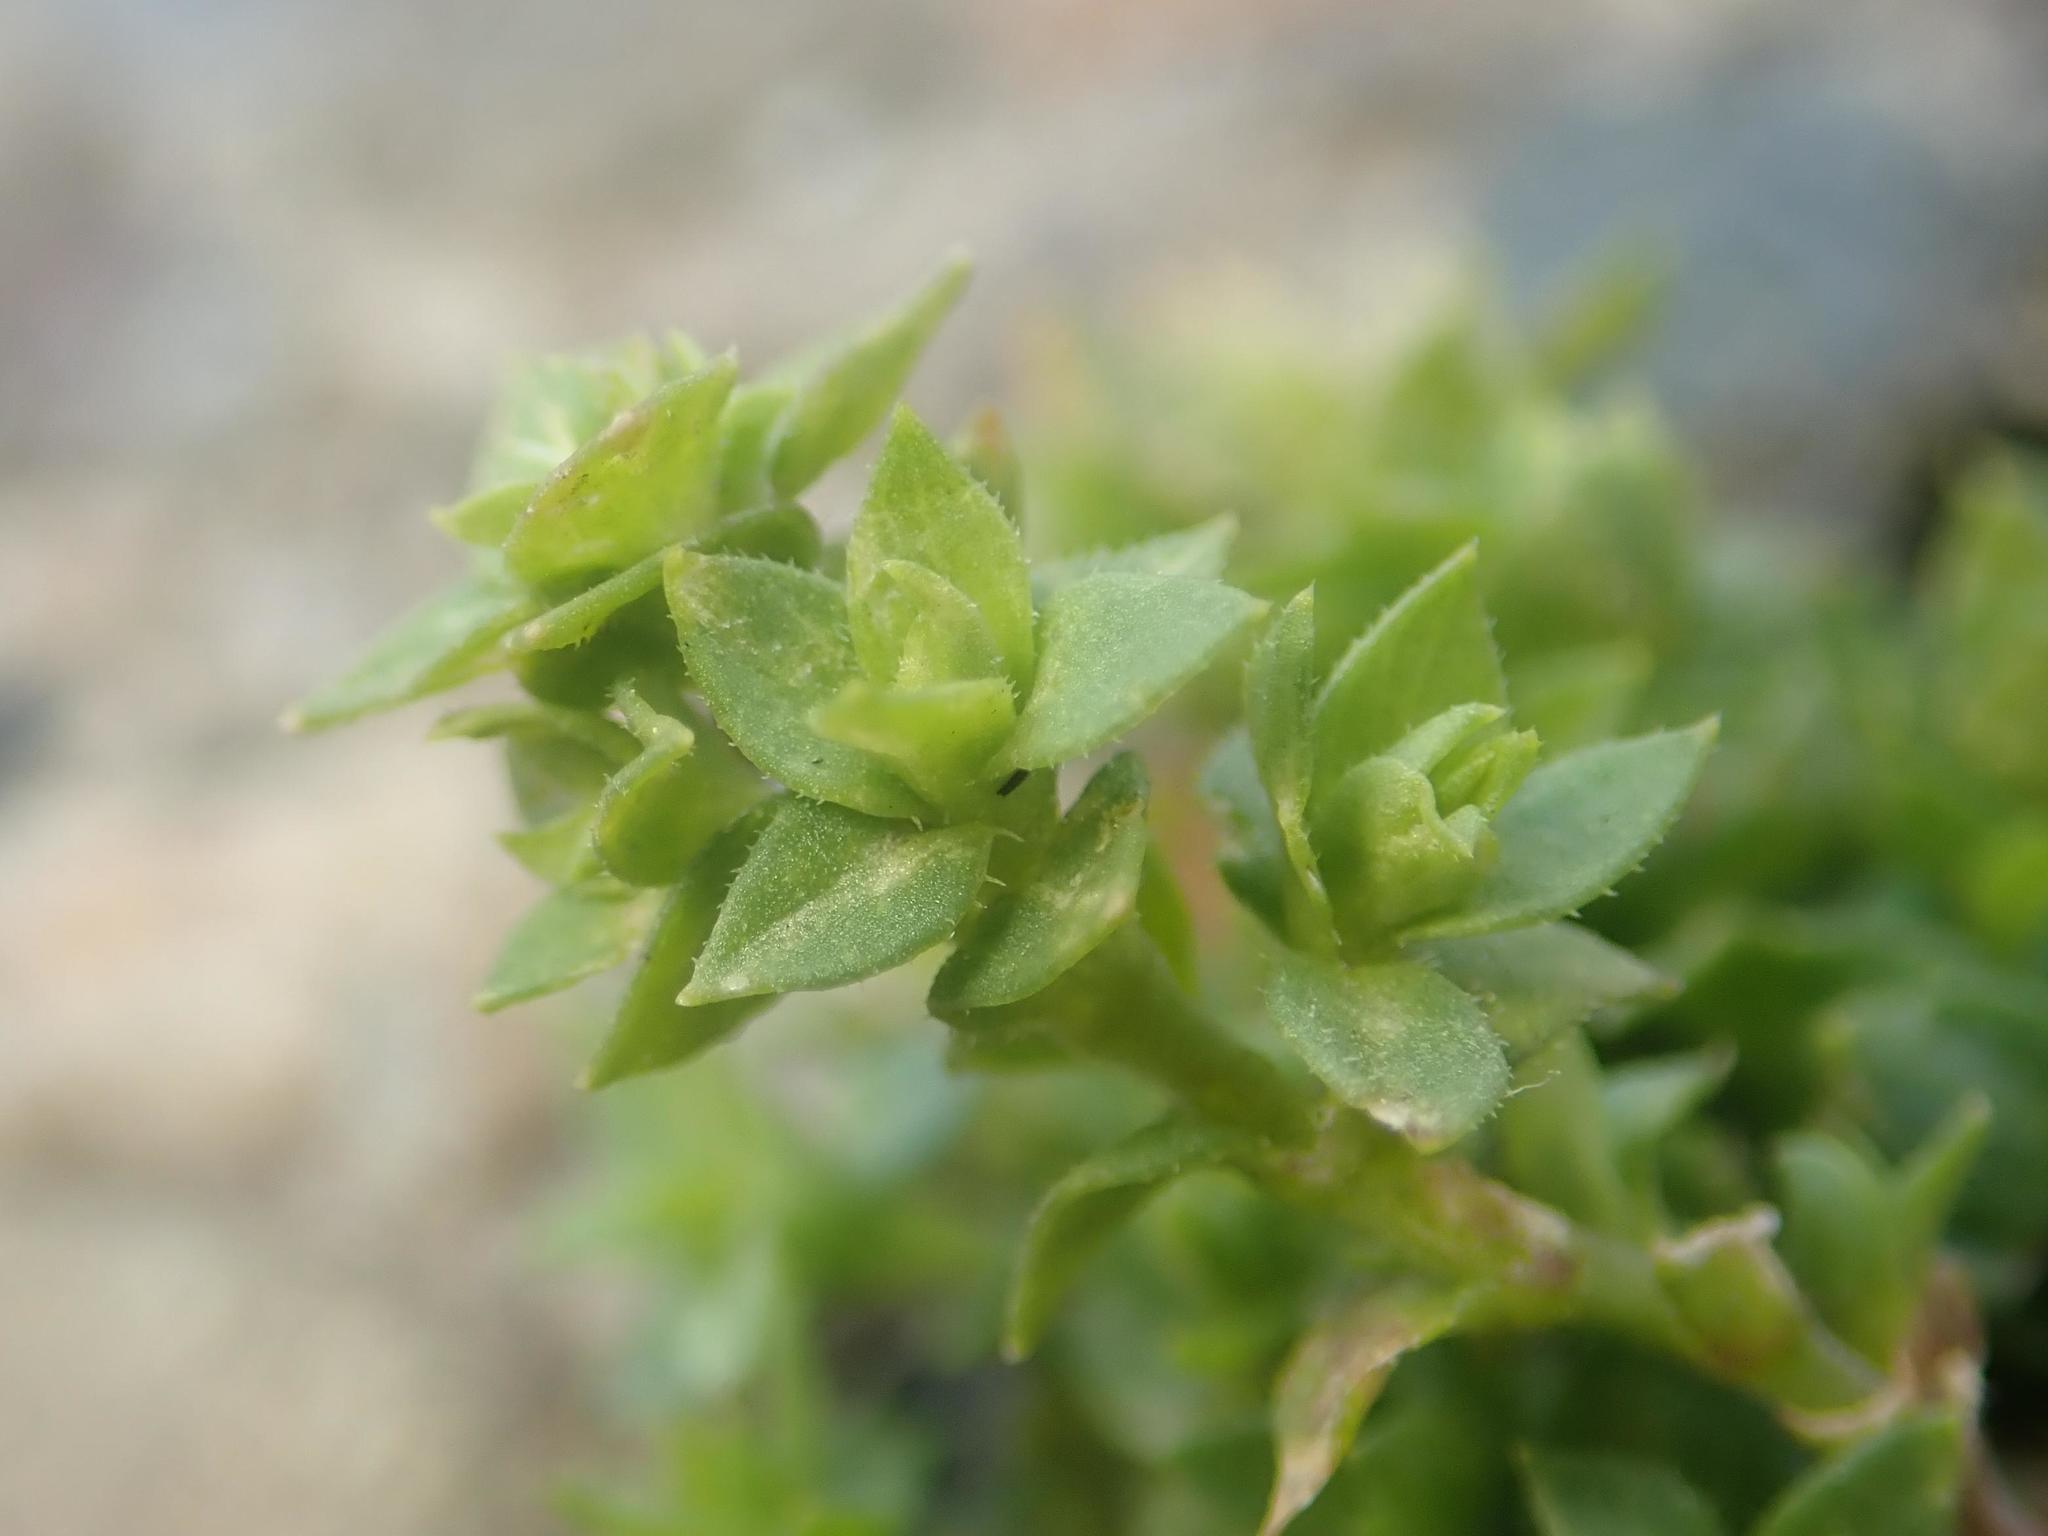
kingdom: Plantae
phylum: Tracheophyta
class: Magnoliopsida
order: Caryophyllales
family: Caryophyllaceae
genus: Arenaria
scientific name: Arenaria serpyllifolia
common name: Thyme-leaved sandwort
